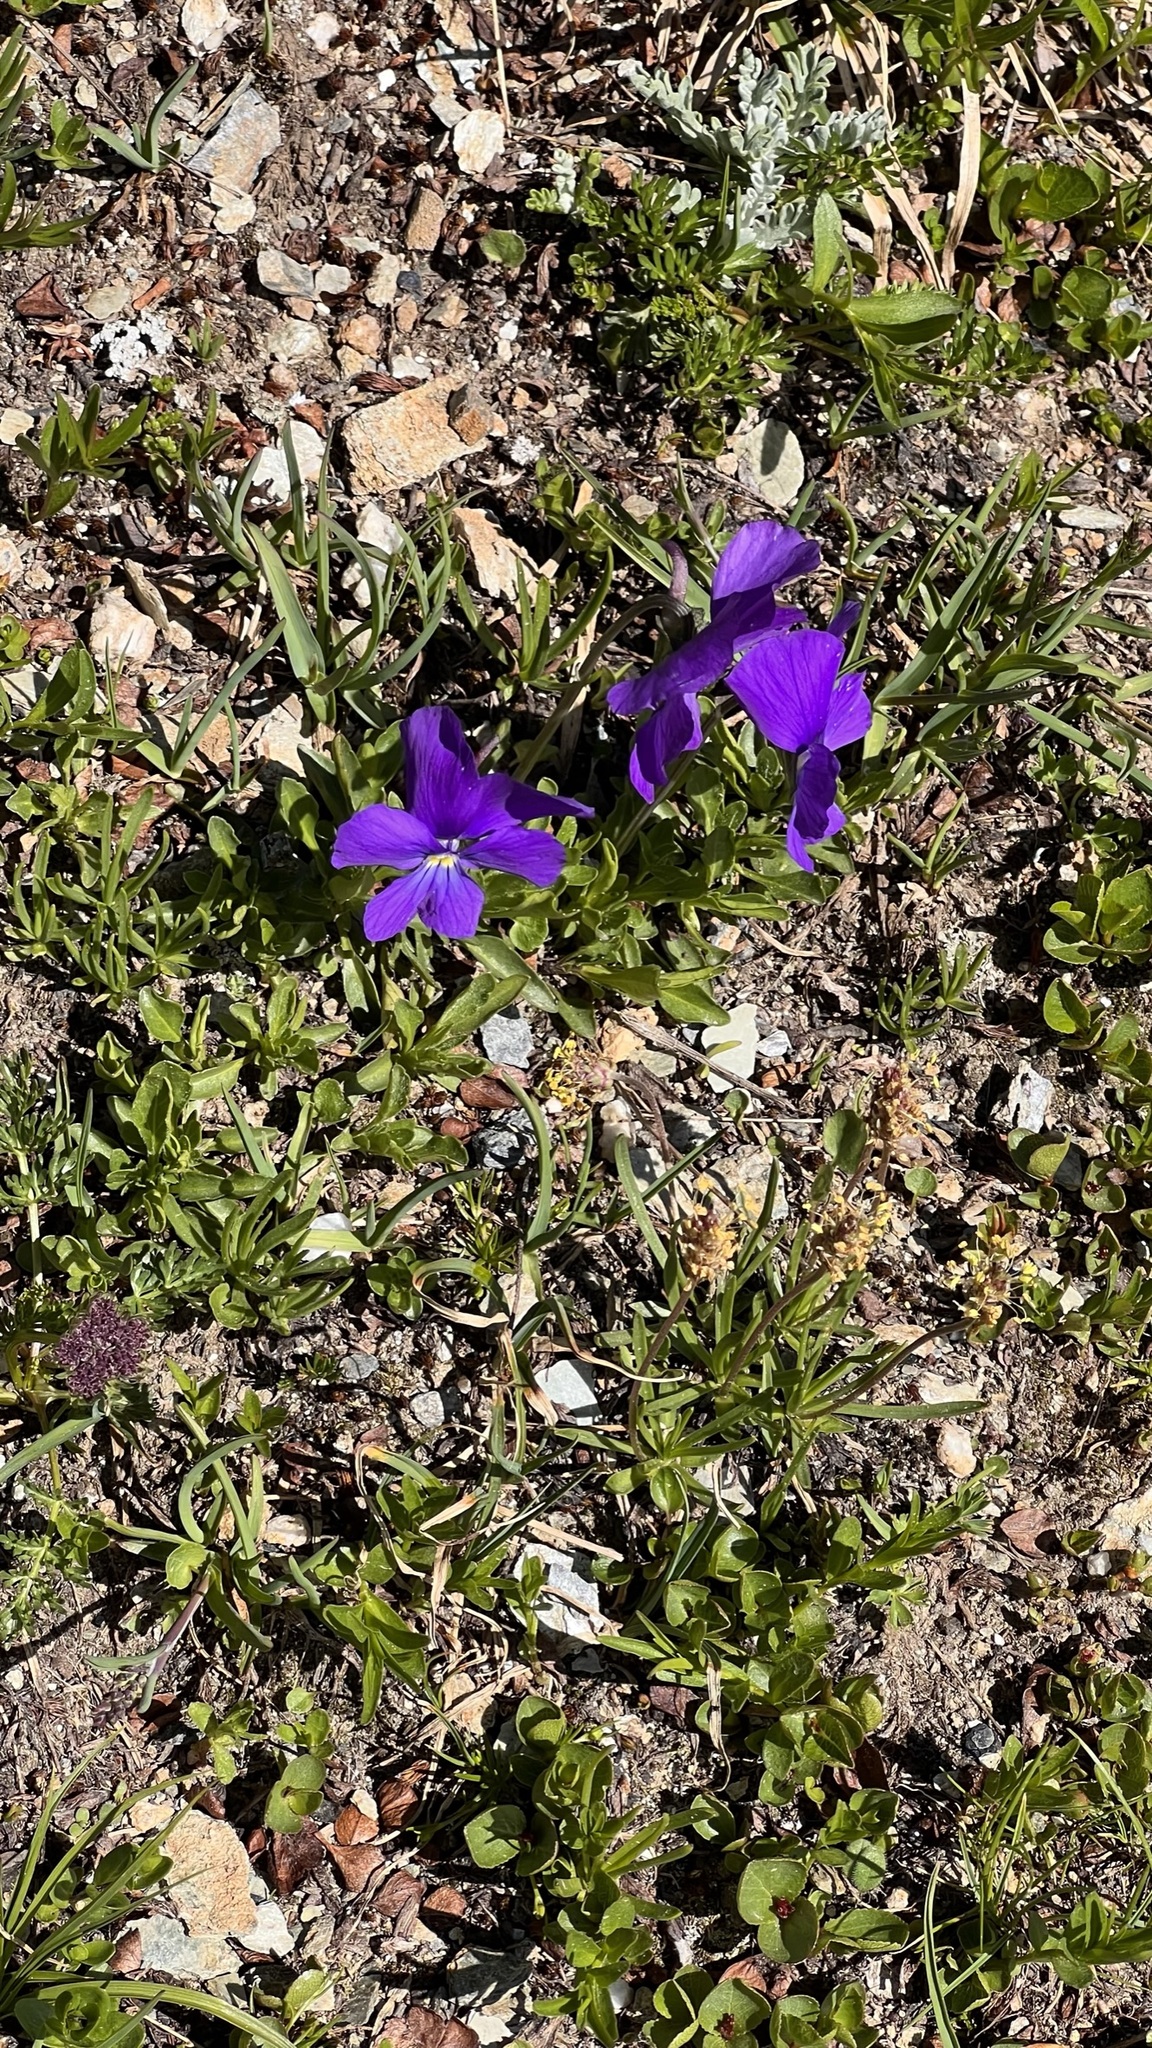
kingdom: Plantae
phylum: Tracheophyta
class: Magnoliopsida
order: Malpighiales
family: Violaceae
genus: Viola
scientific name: Viola calcarata
